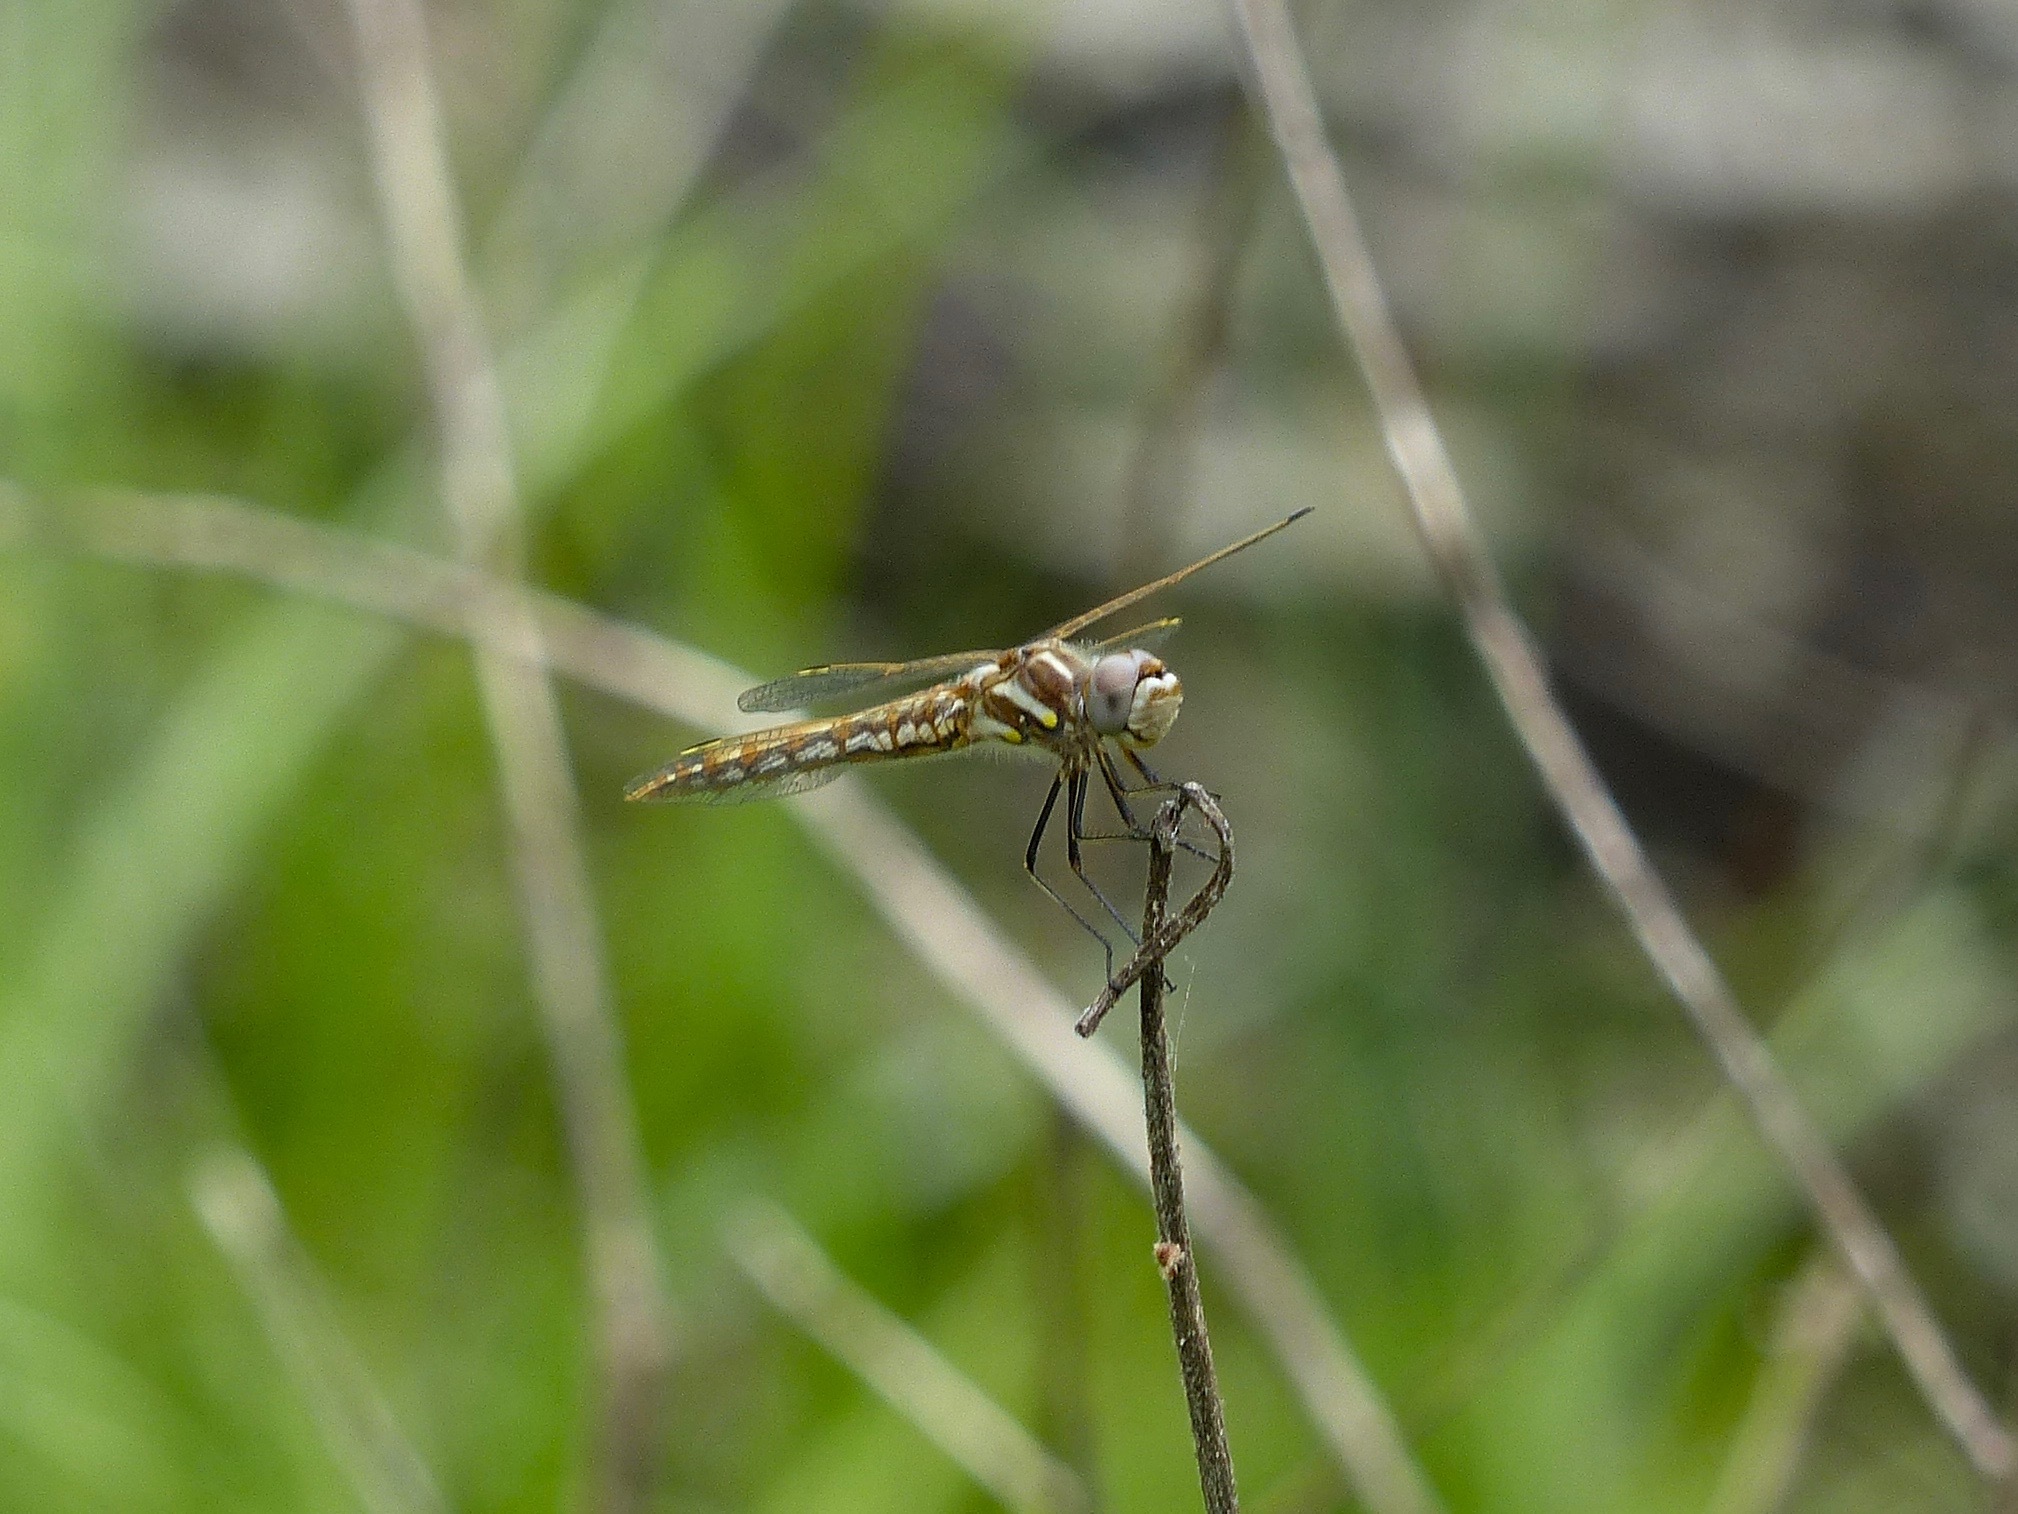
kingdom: Animalia
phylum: Arthropoda
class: Insecta
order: Odonata
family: Libellulidae
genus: Sympetrum
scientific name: Sympetrum corruptum
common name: Variegated meadowhawk
